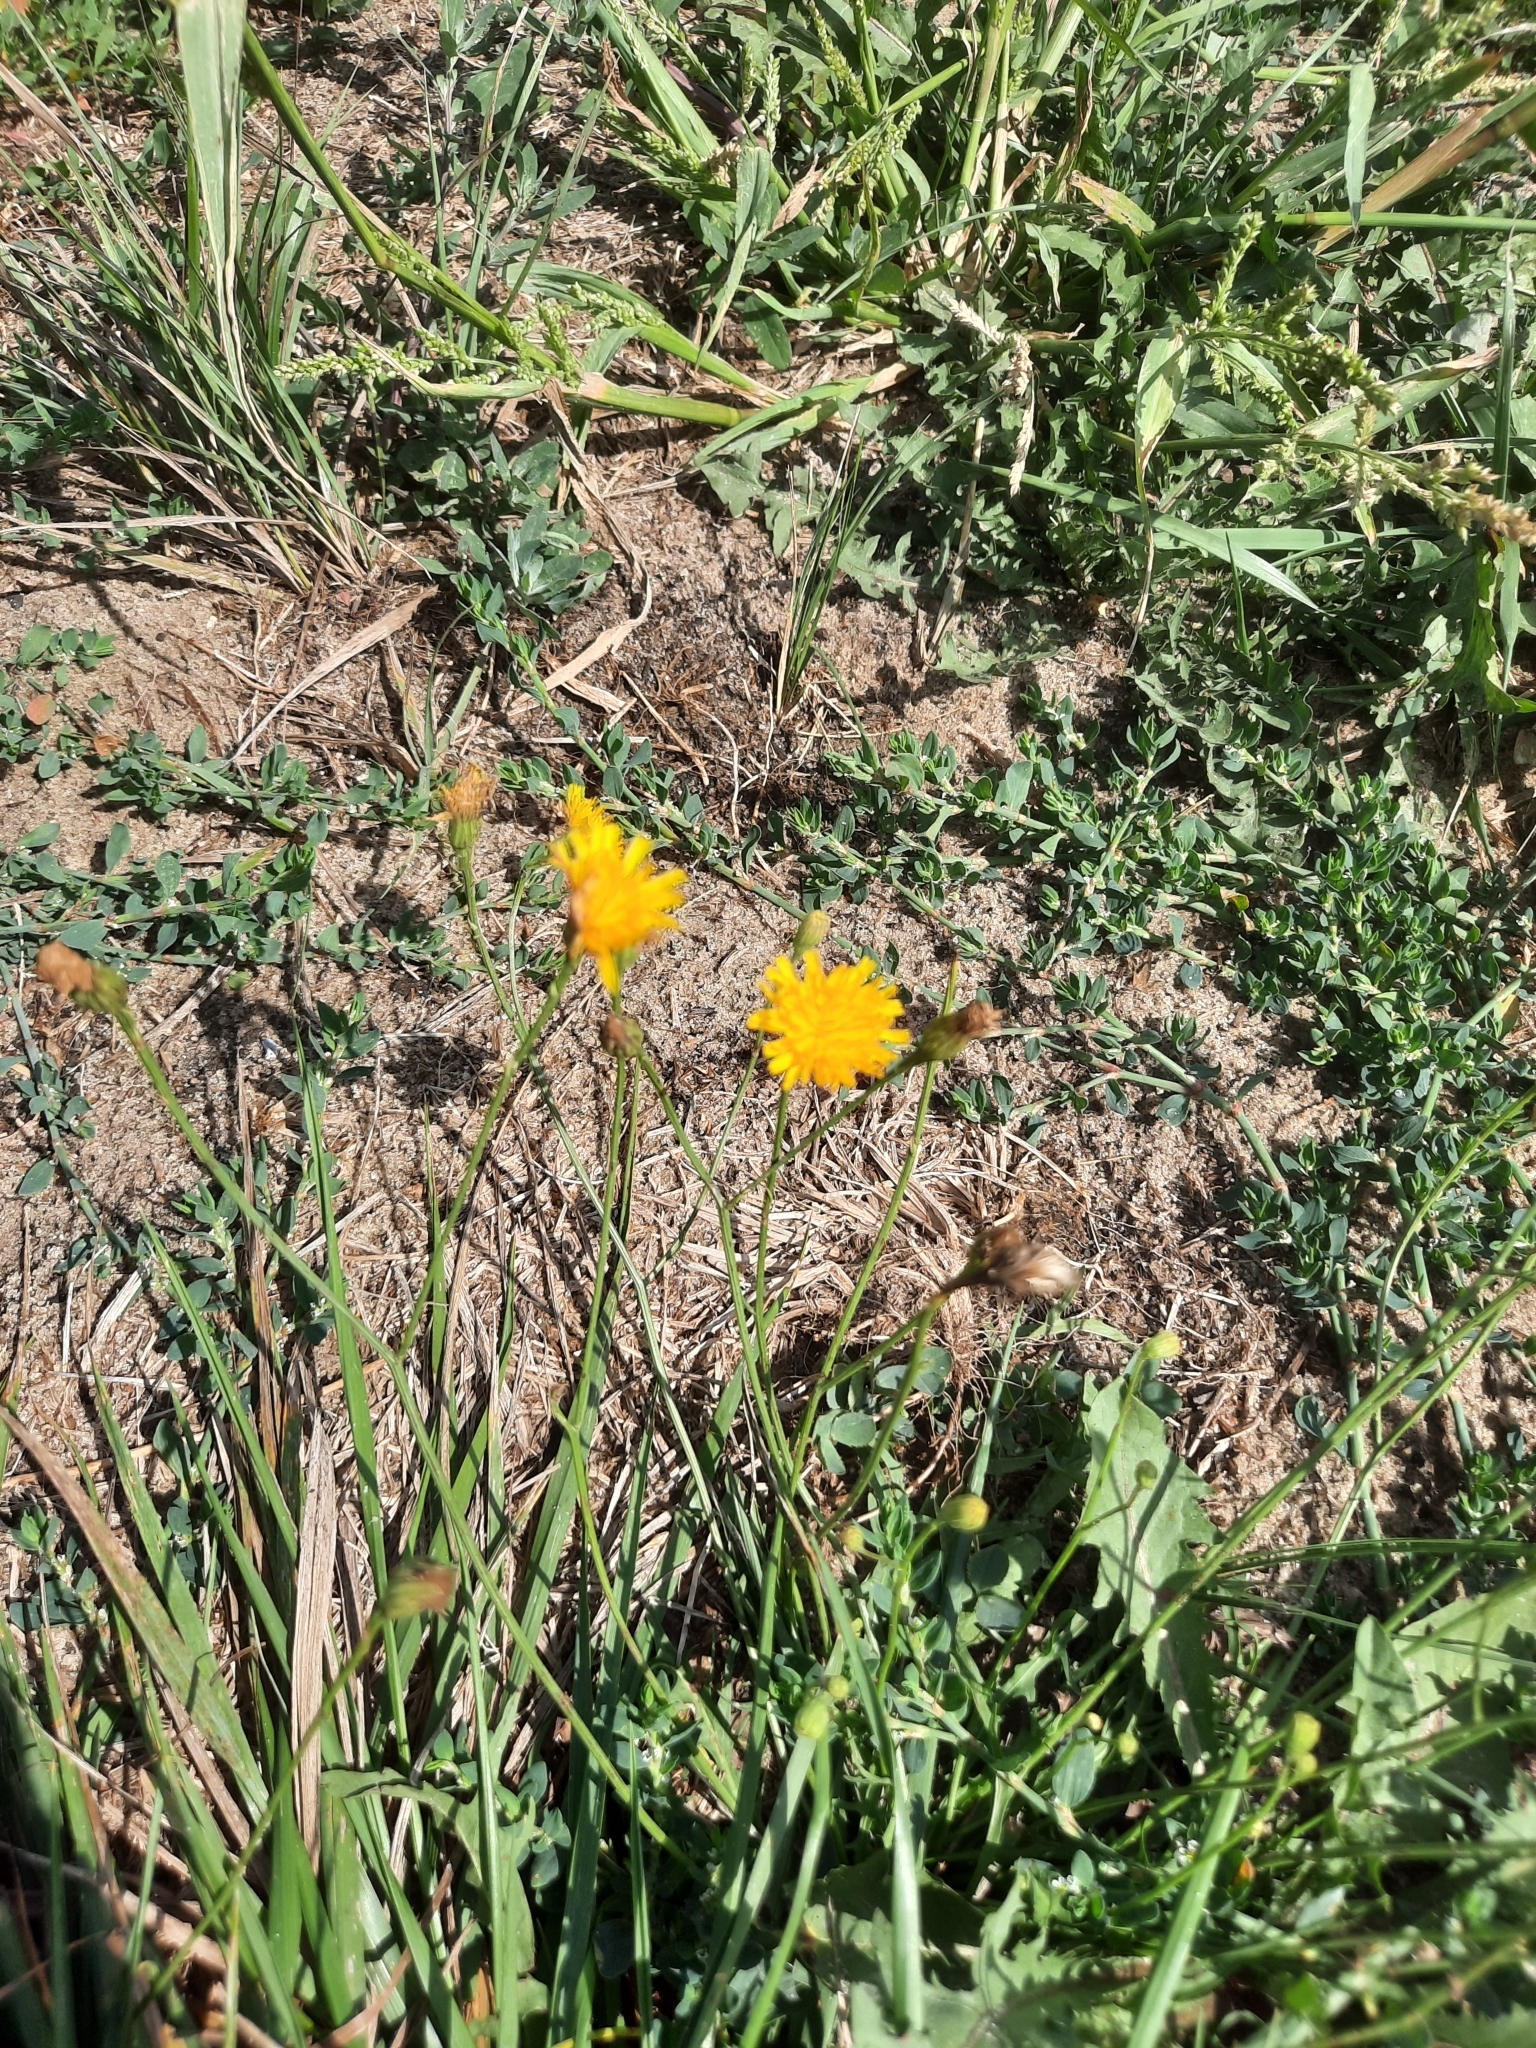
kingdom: Plantae
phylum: Tracheophyta
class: Magnoliopsida
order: Asterales
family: Asteraceae
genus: Scorzoneroides
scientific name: Scorzoneroides autumnalis
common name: Autumn hawkbit
